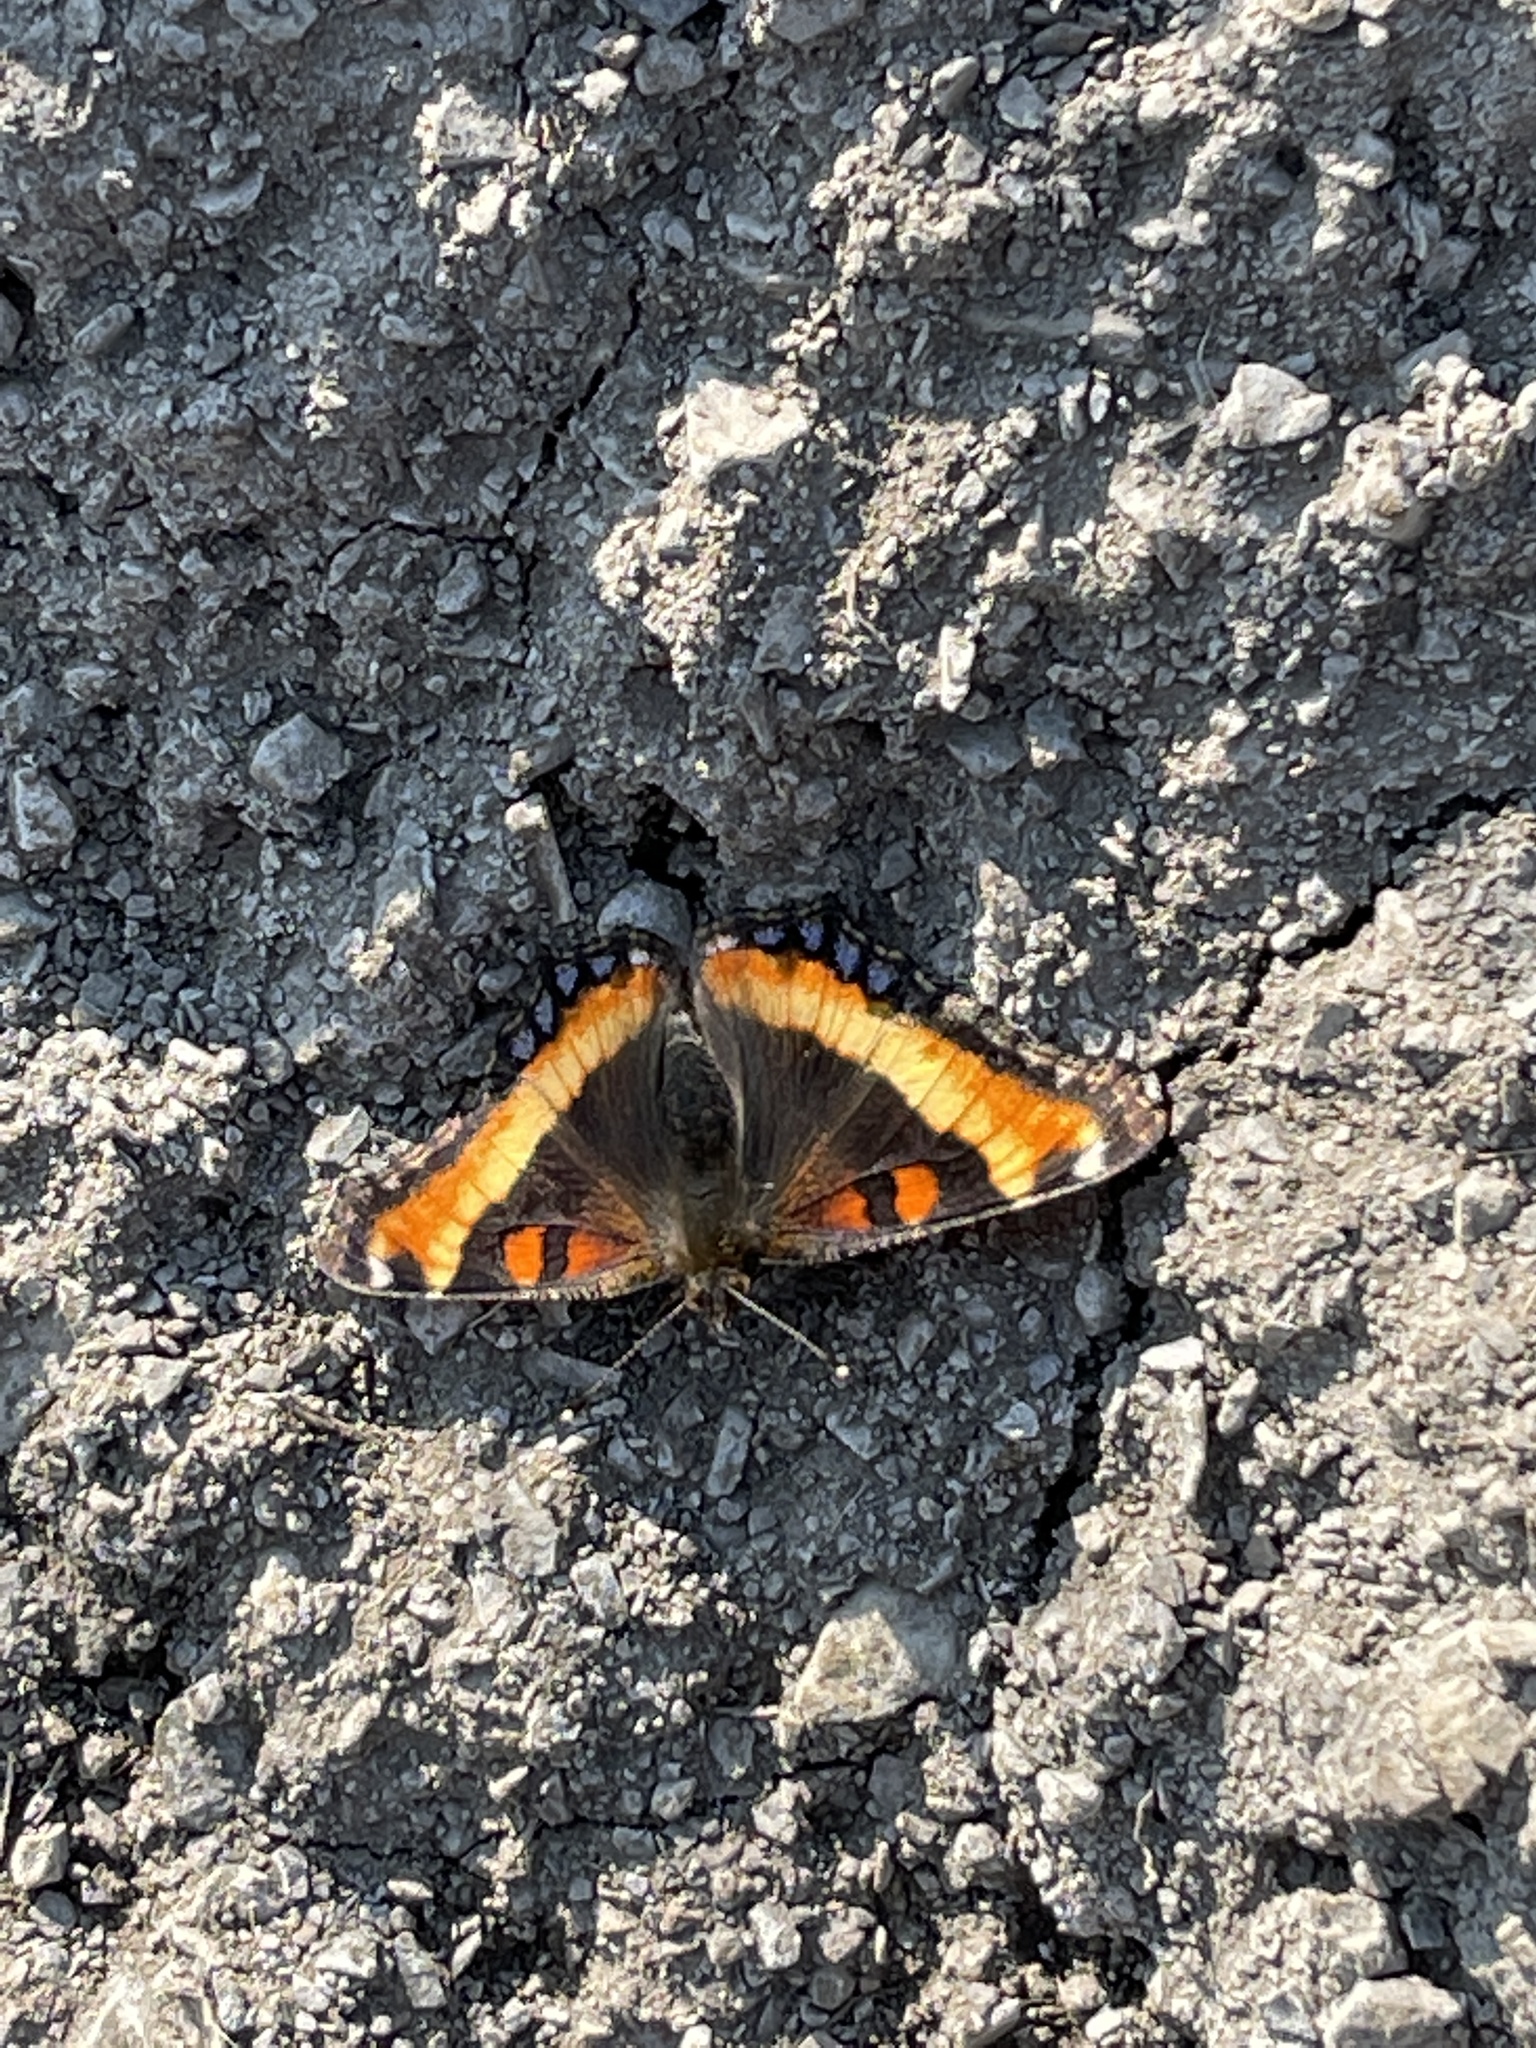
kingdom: Animalia
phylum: Arthropoda
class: Insecta
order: Lepidoptera
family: Nymphalidae
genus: Aglais
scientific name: Aglais milberti
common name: Milbert's tortoiseshell
